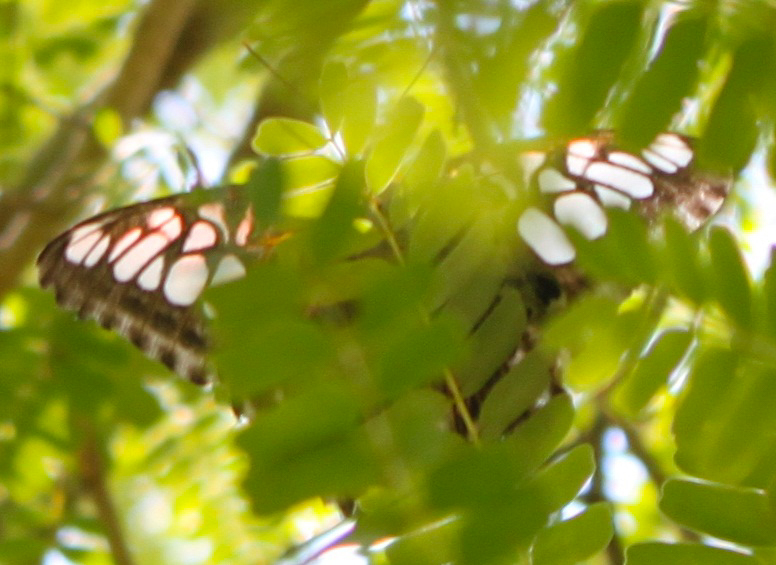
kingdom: Animalia
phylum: Arthropoda
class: Insecta
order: Lepidoptera
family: Nymphalidae
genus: Kallima
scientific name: Kallima sylvia
